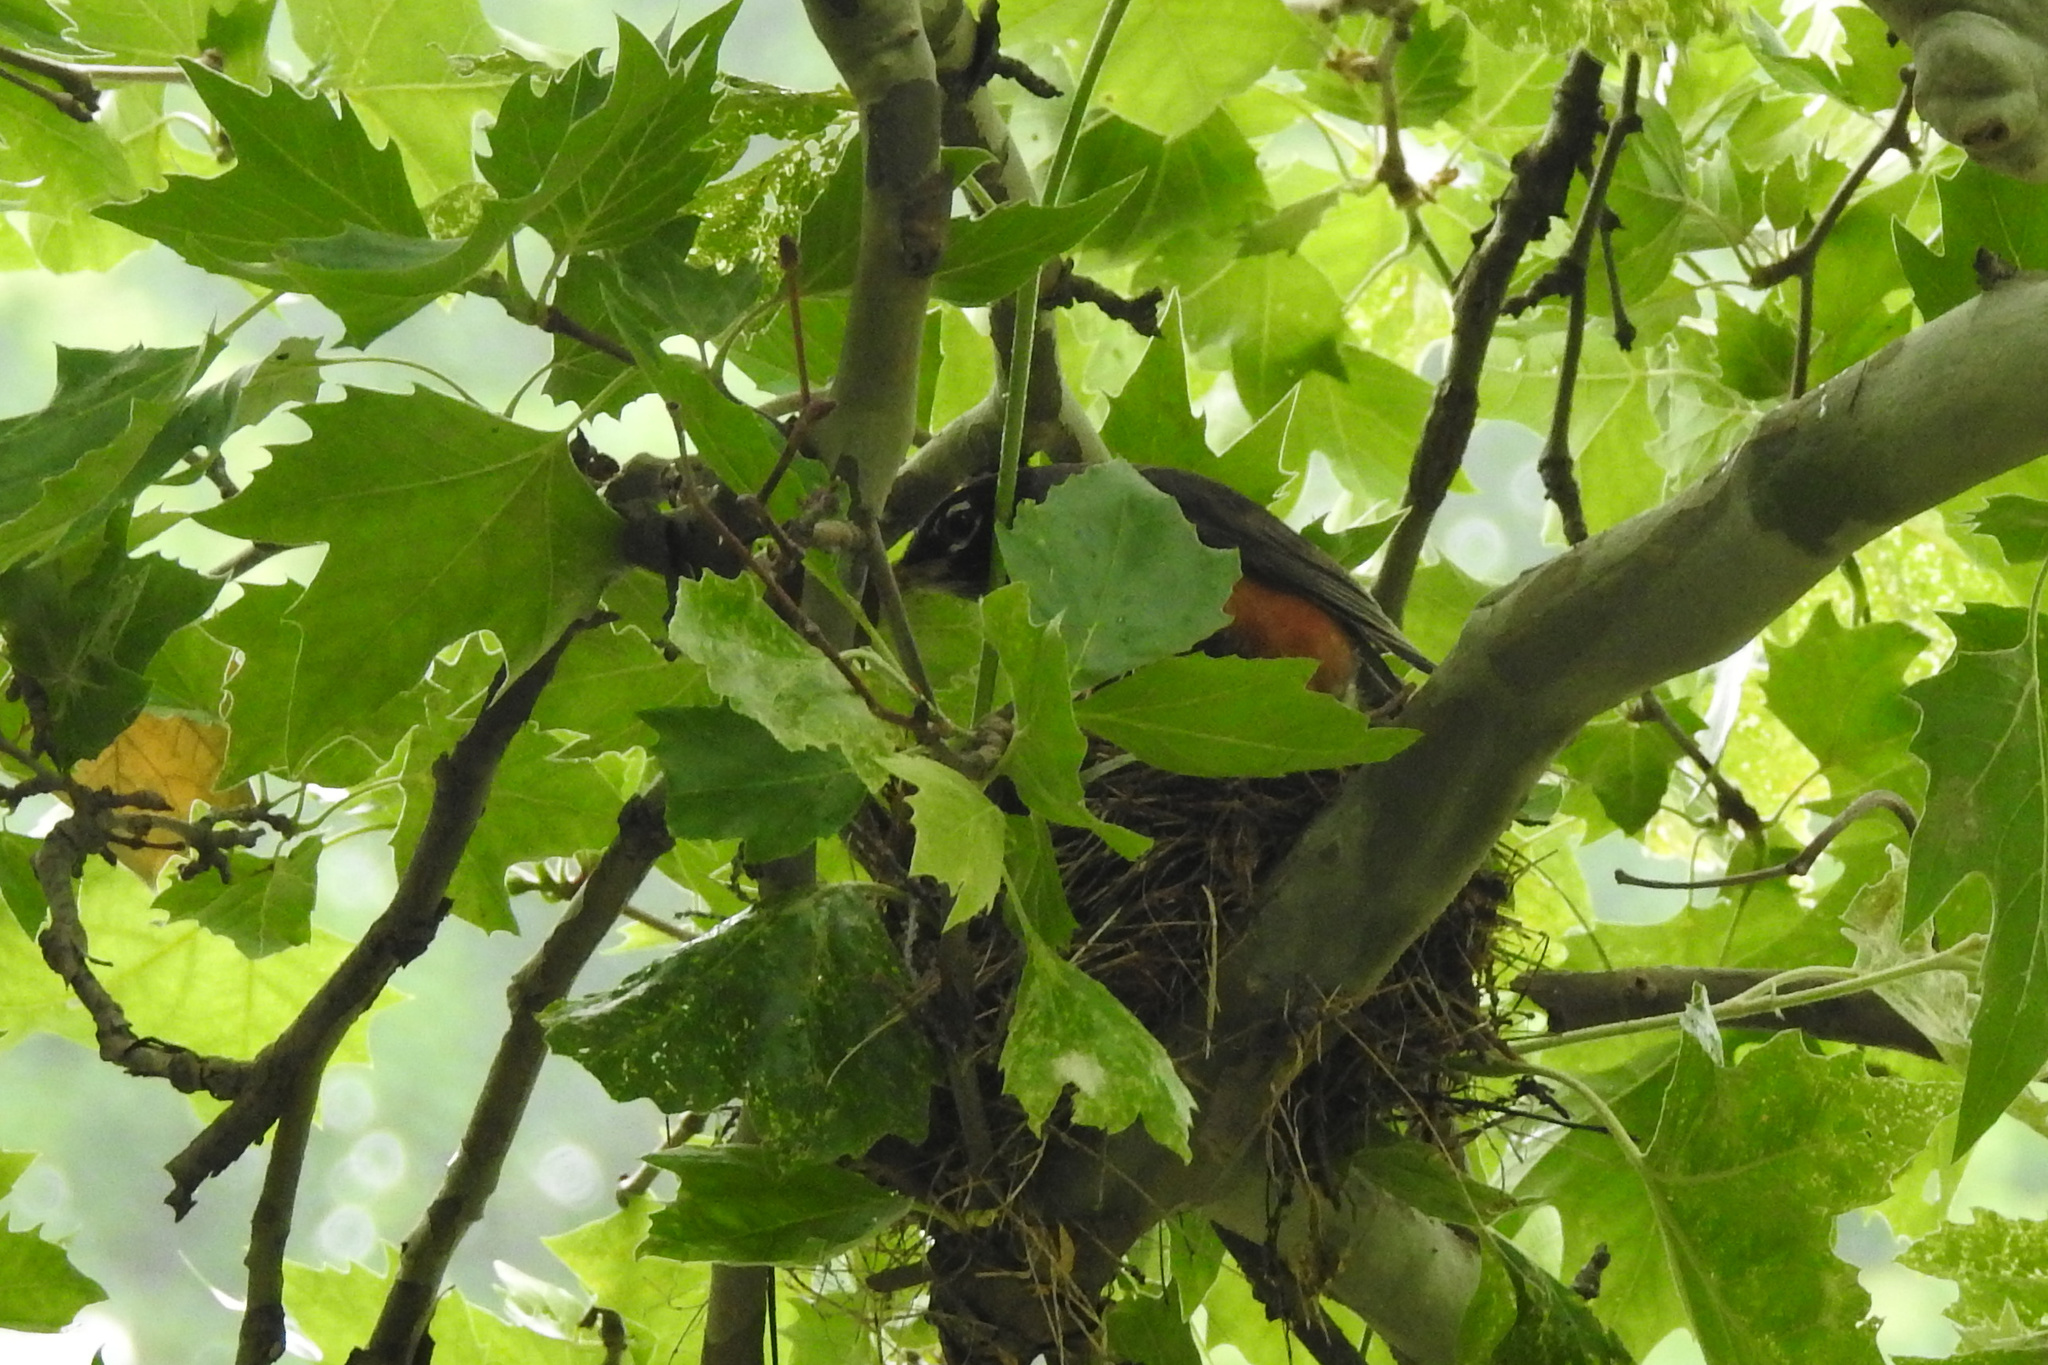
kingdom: Animalia
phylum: Chordata
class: Aves
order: Passeriformes
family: Turdidae
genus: Turdus
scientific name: Turdus migratorius
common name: American robin
